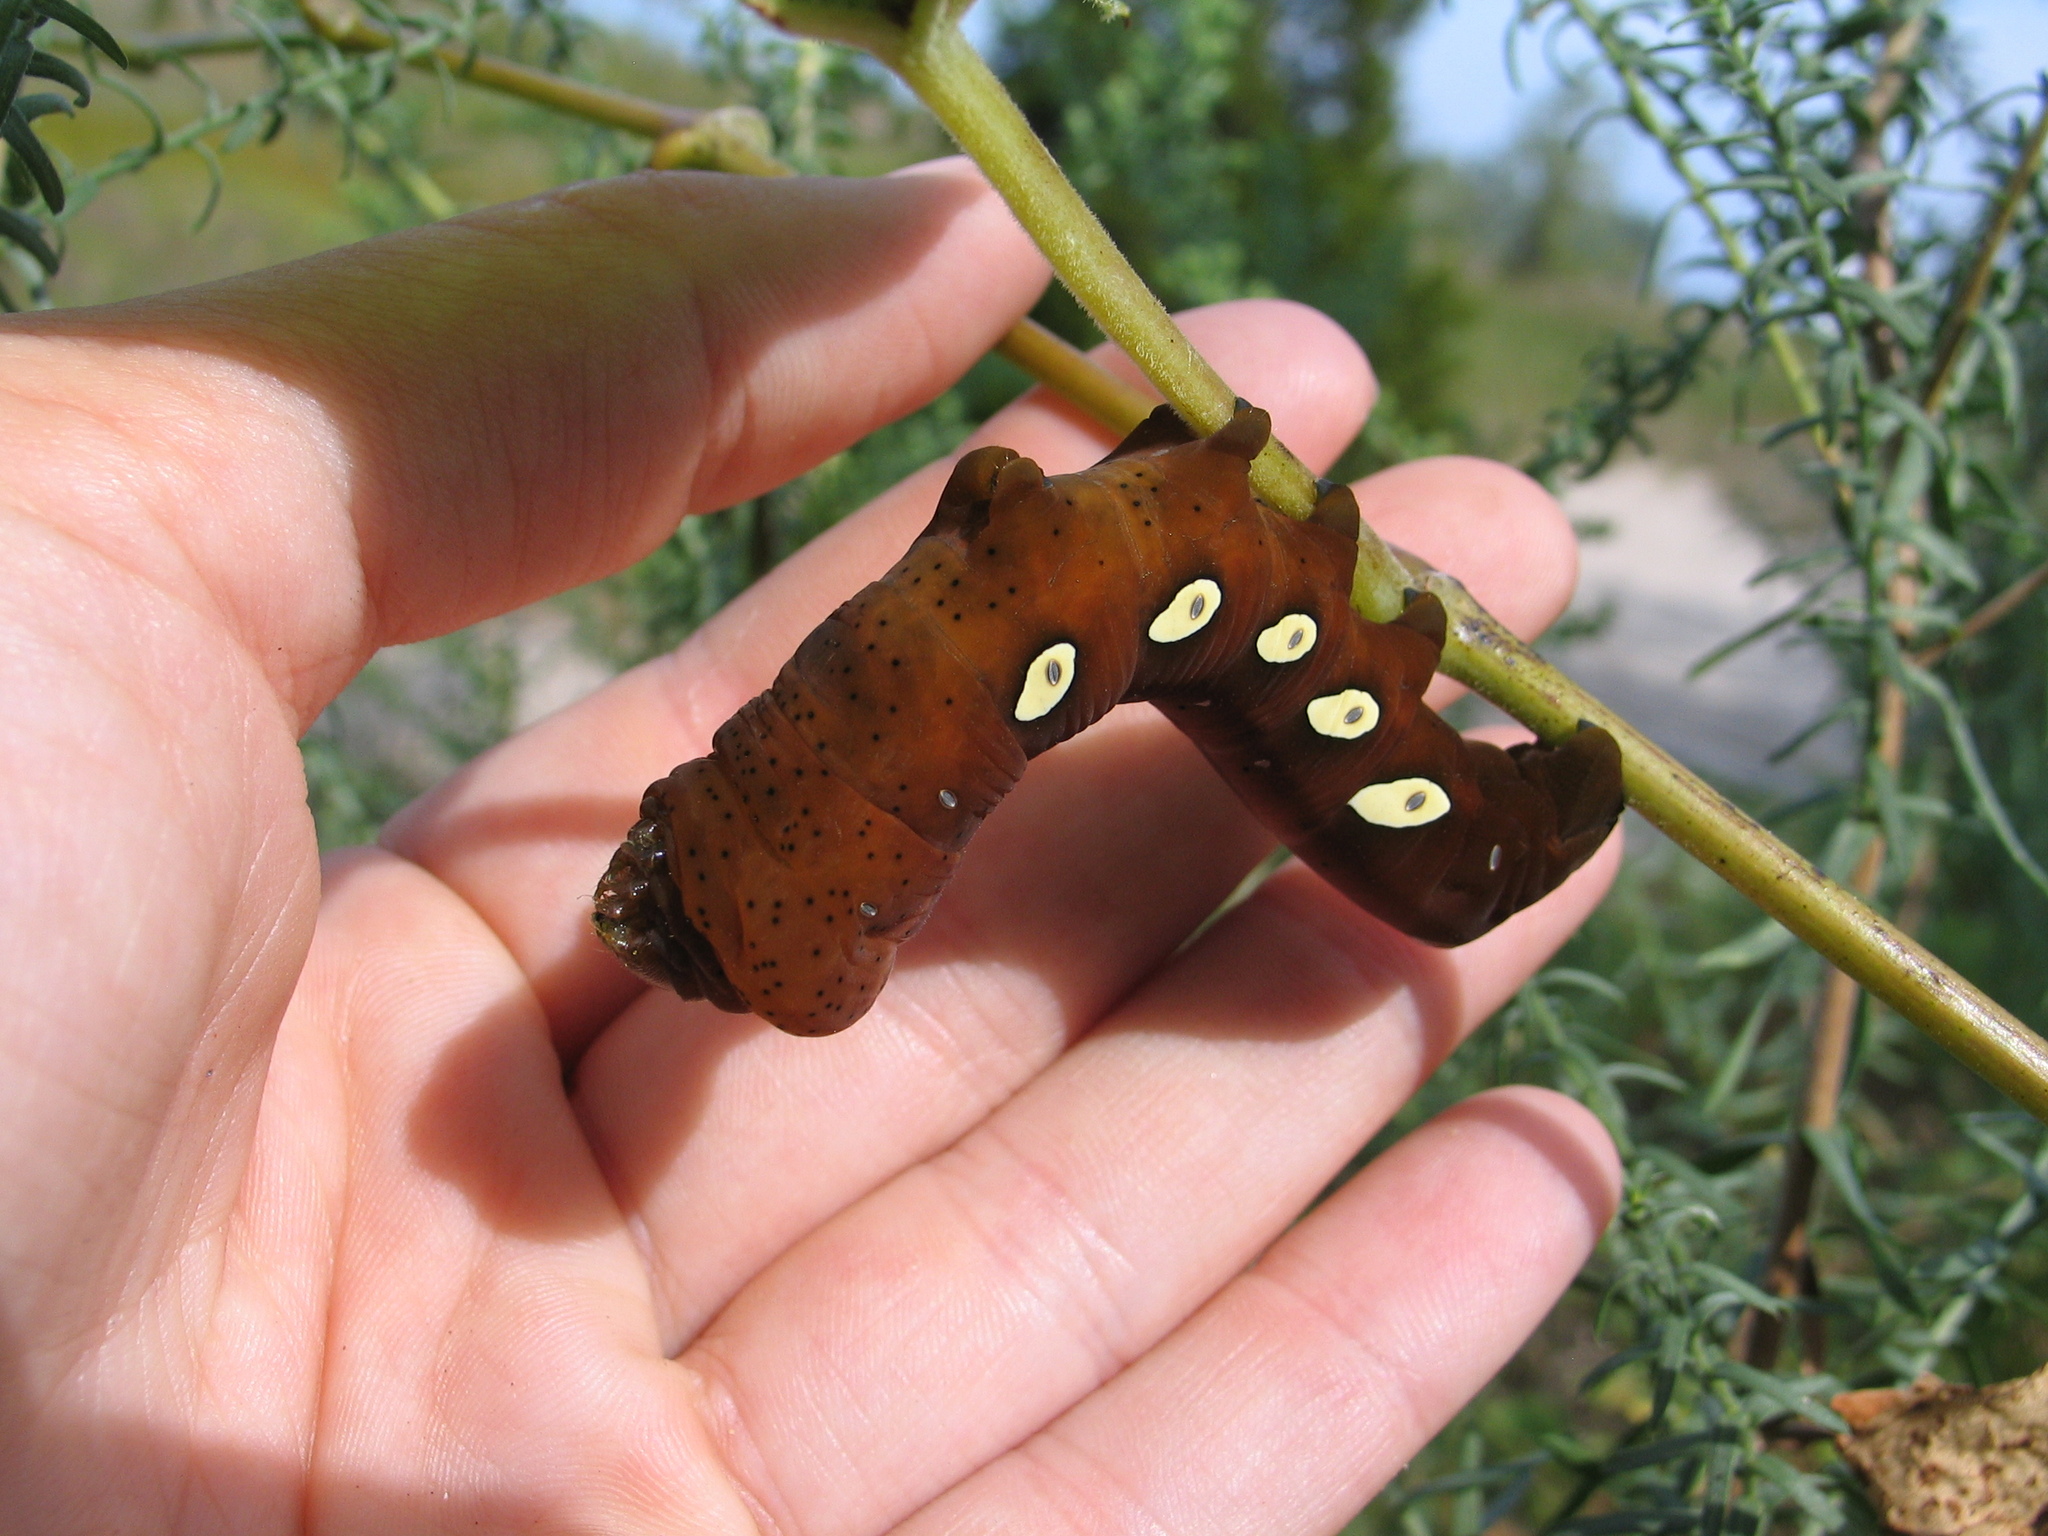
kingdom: Animalia
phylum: Arthropoda
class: Insecta
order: Lepidoptera
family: Sphingidae
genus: Eumorpha
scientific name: Eumorpha pandorus
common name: Pandora sphinx
